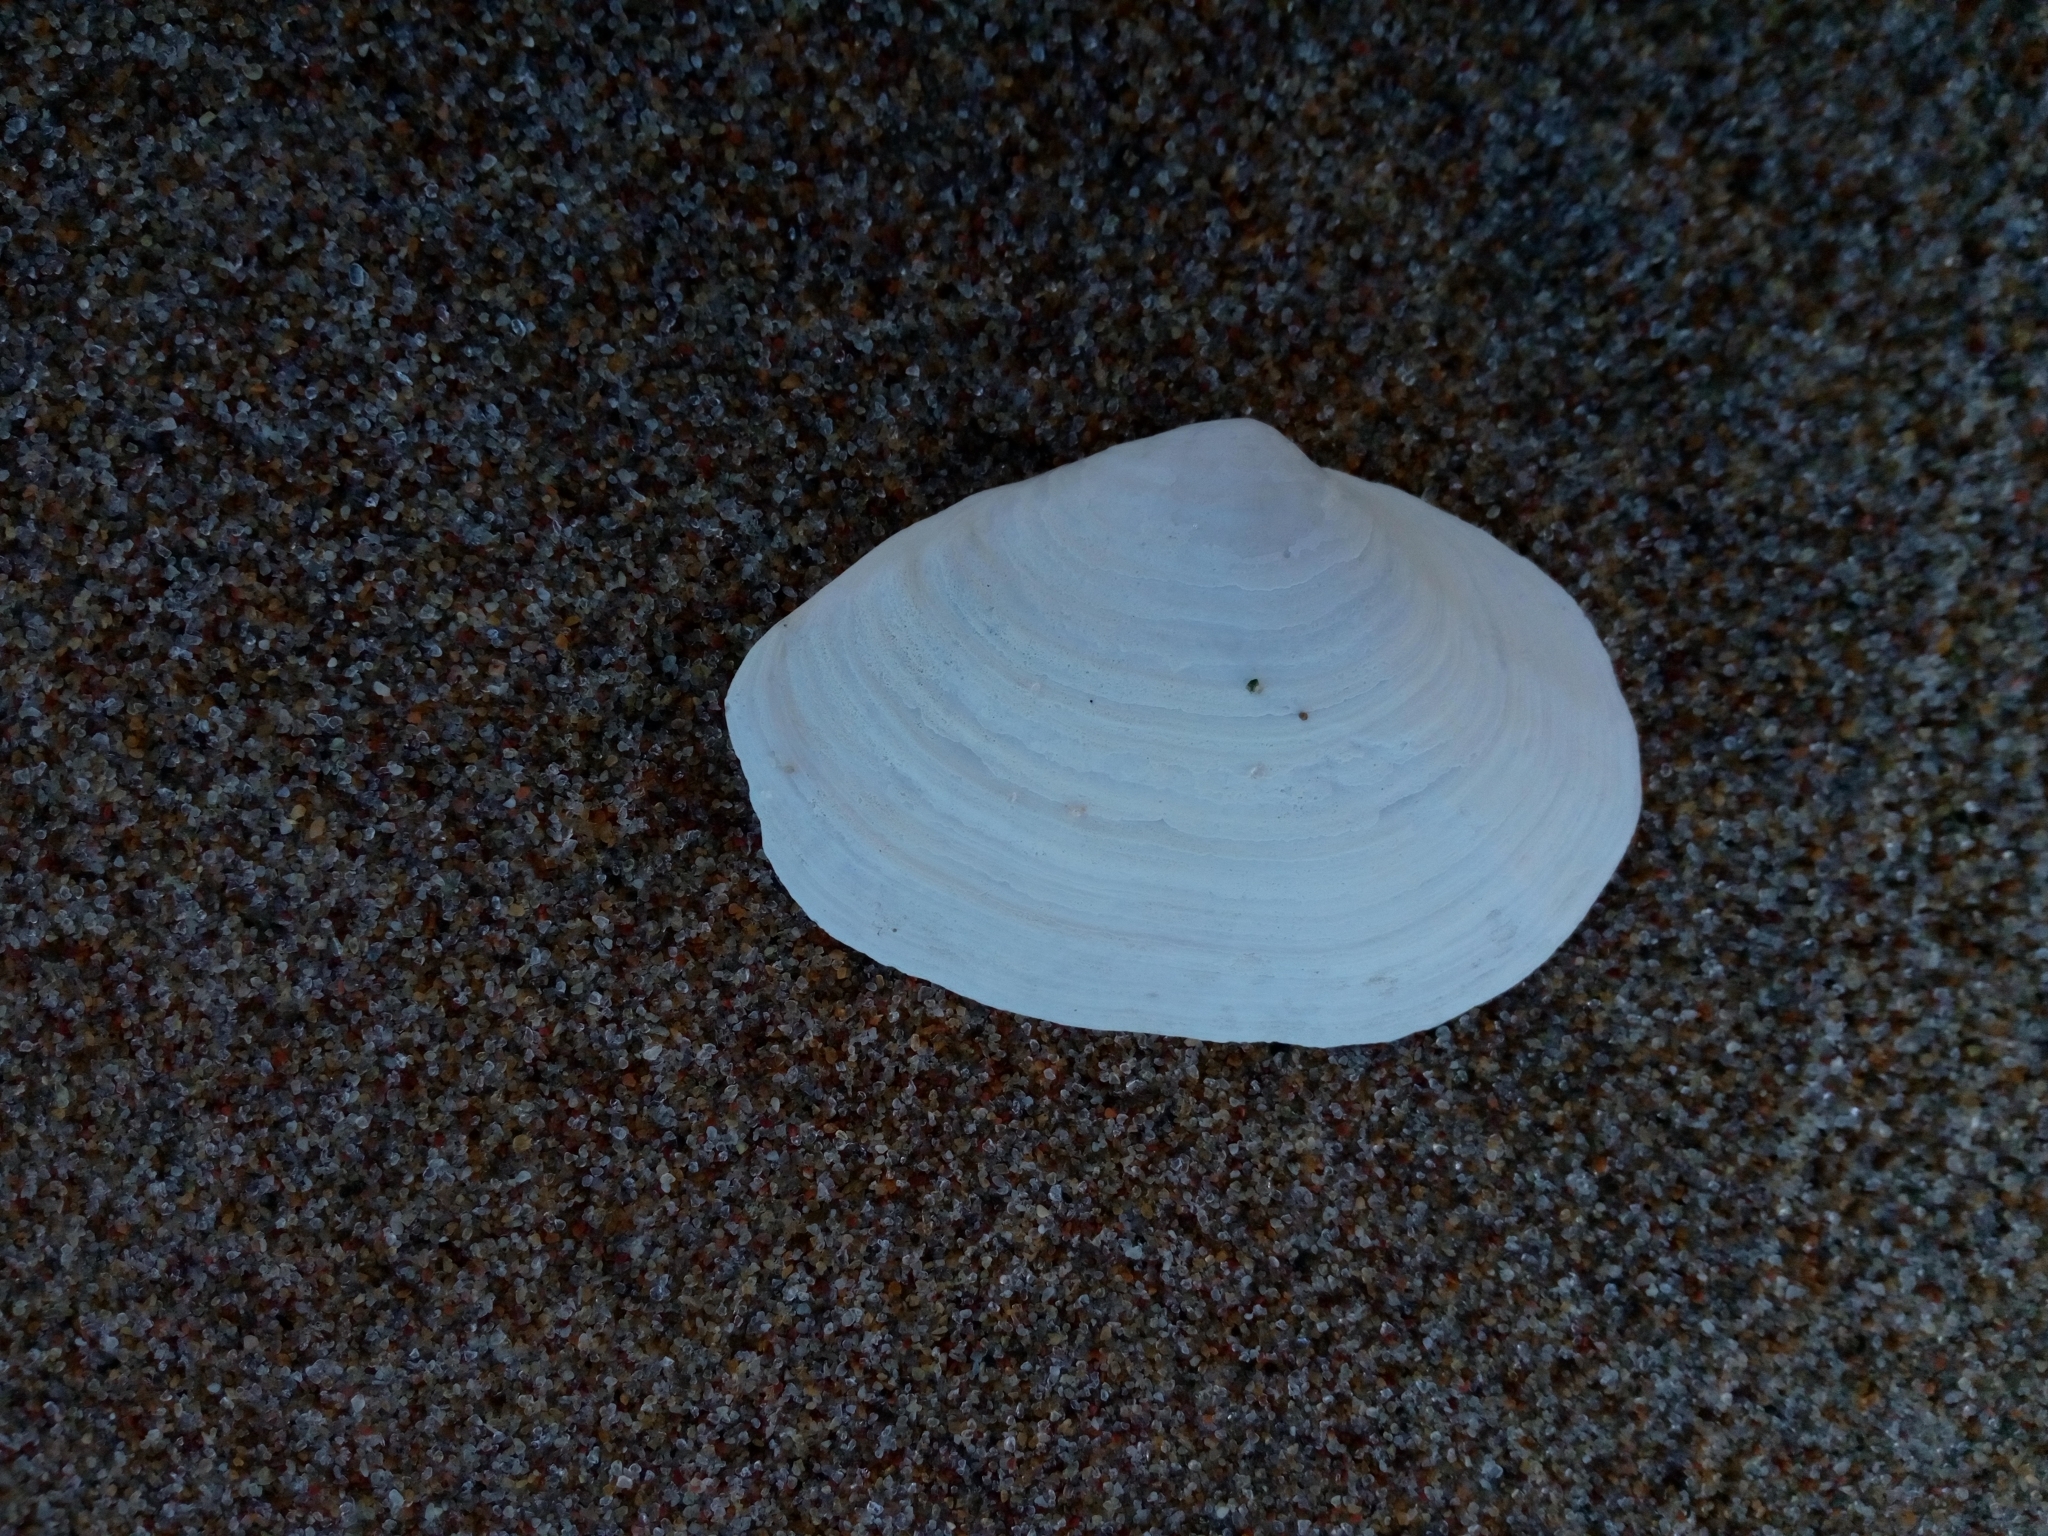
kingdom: Animalia
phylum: Mollusca
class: Bivalvia
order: Myida
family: Myidae
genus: Mya
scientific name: Mya arenaria
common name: Soft-shelled clam
